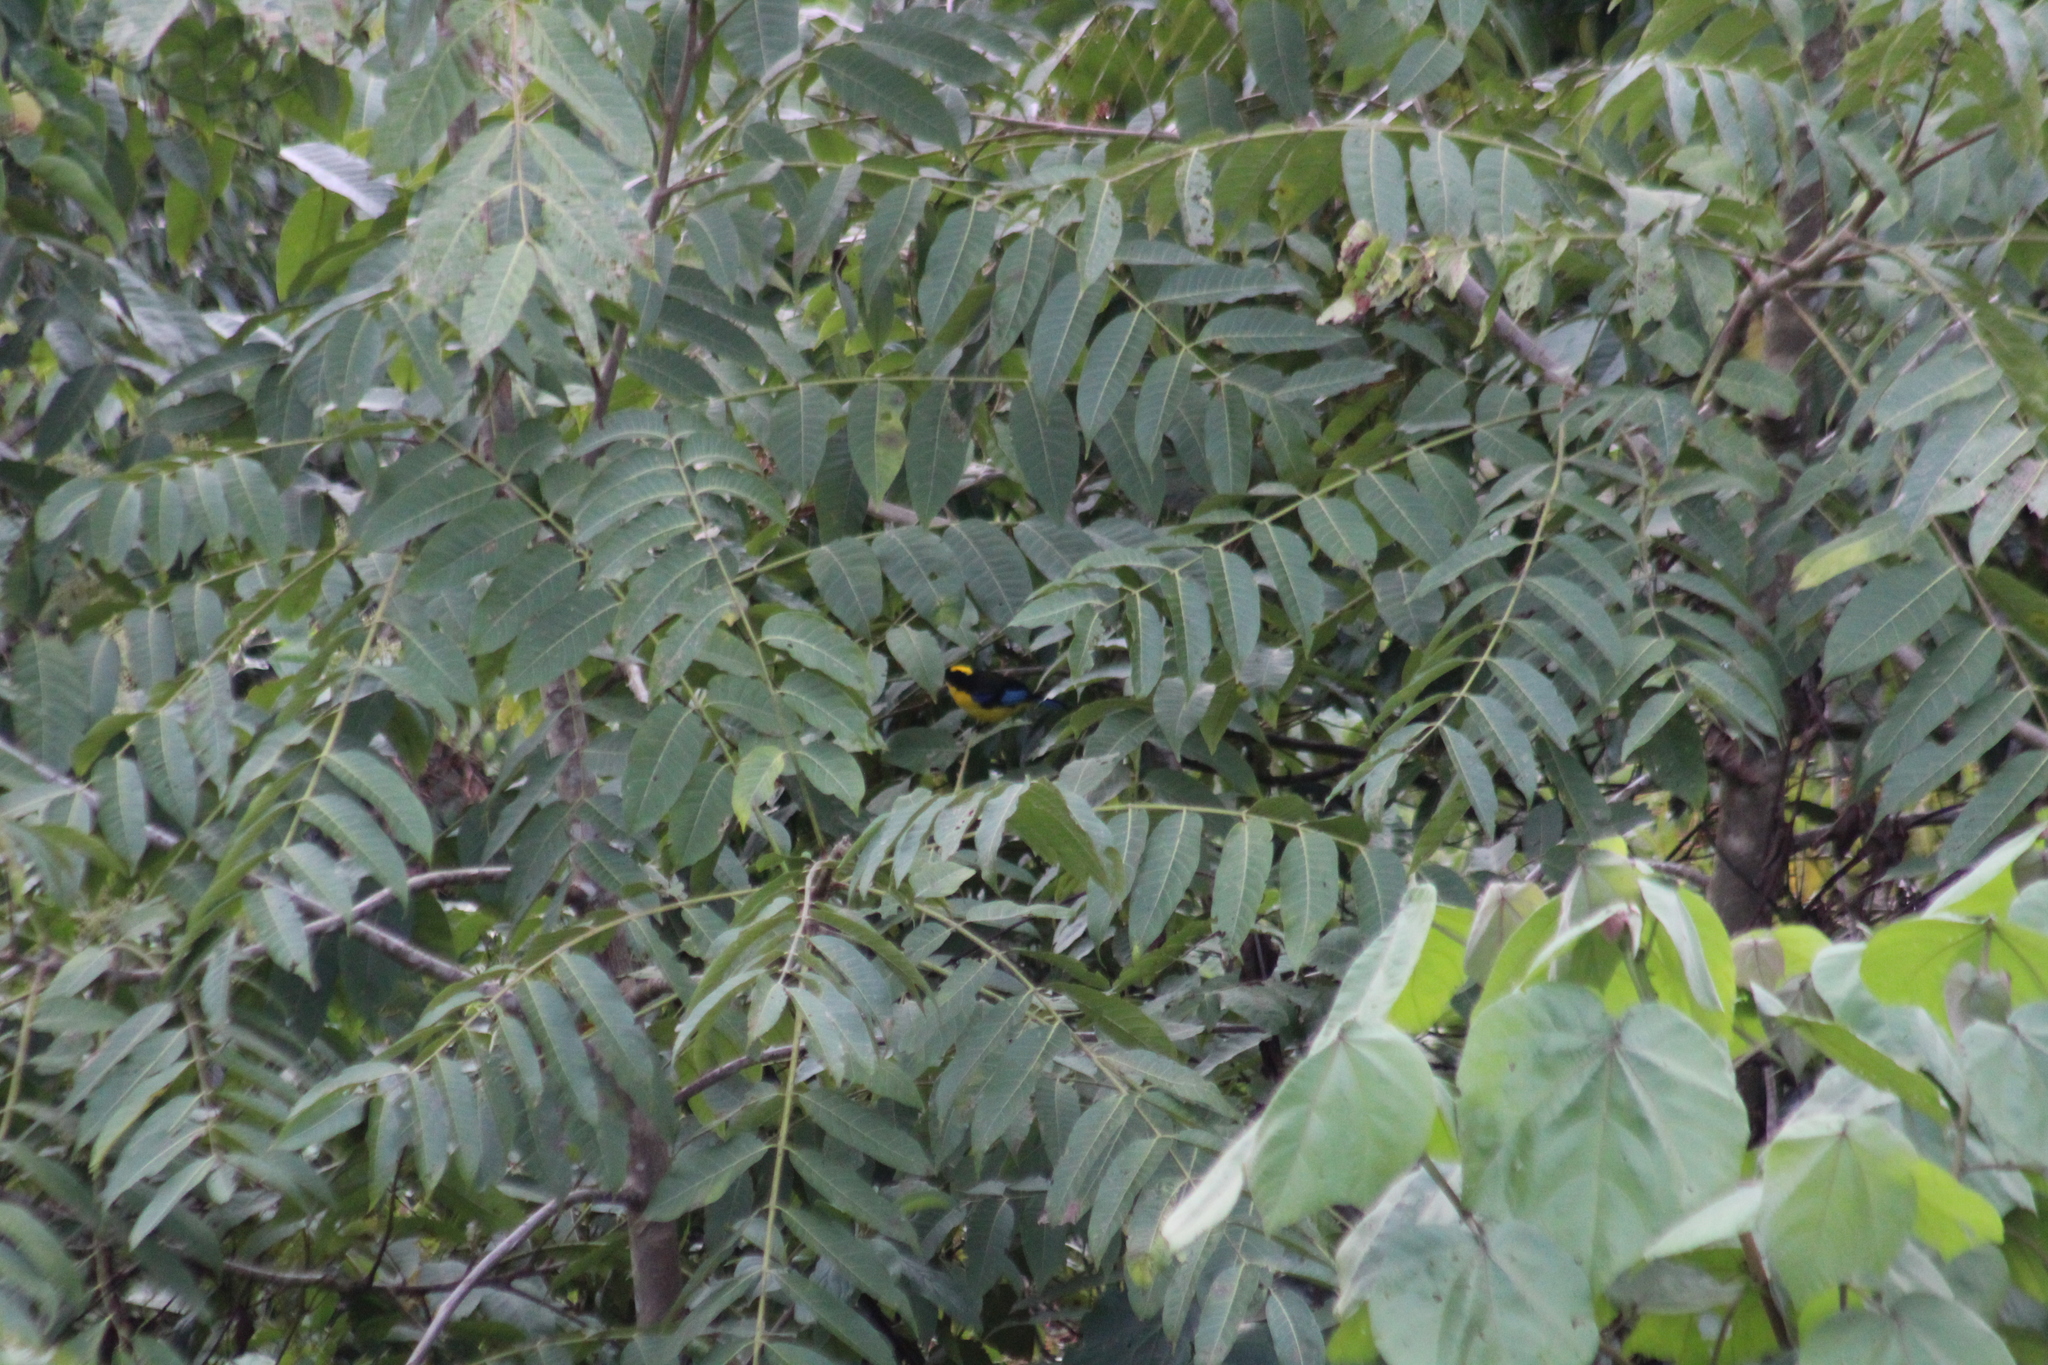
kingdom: Animalia
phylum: Chordata
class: Aves
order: Passeriformes
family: Thraupidae
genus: Anisognathus
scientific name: Anisognathus somptuosus
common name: Blue-winged mountain-tanager
